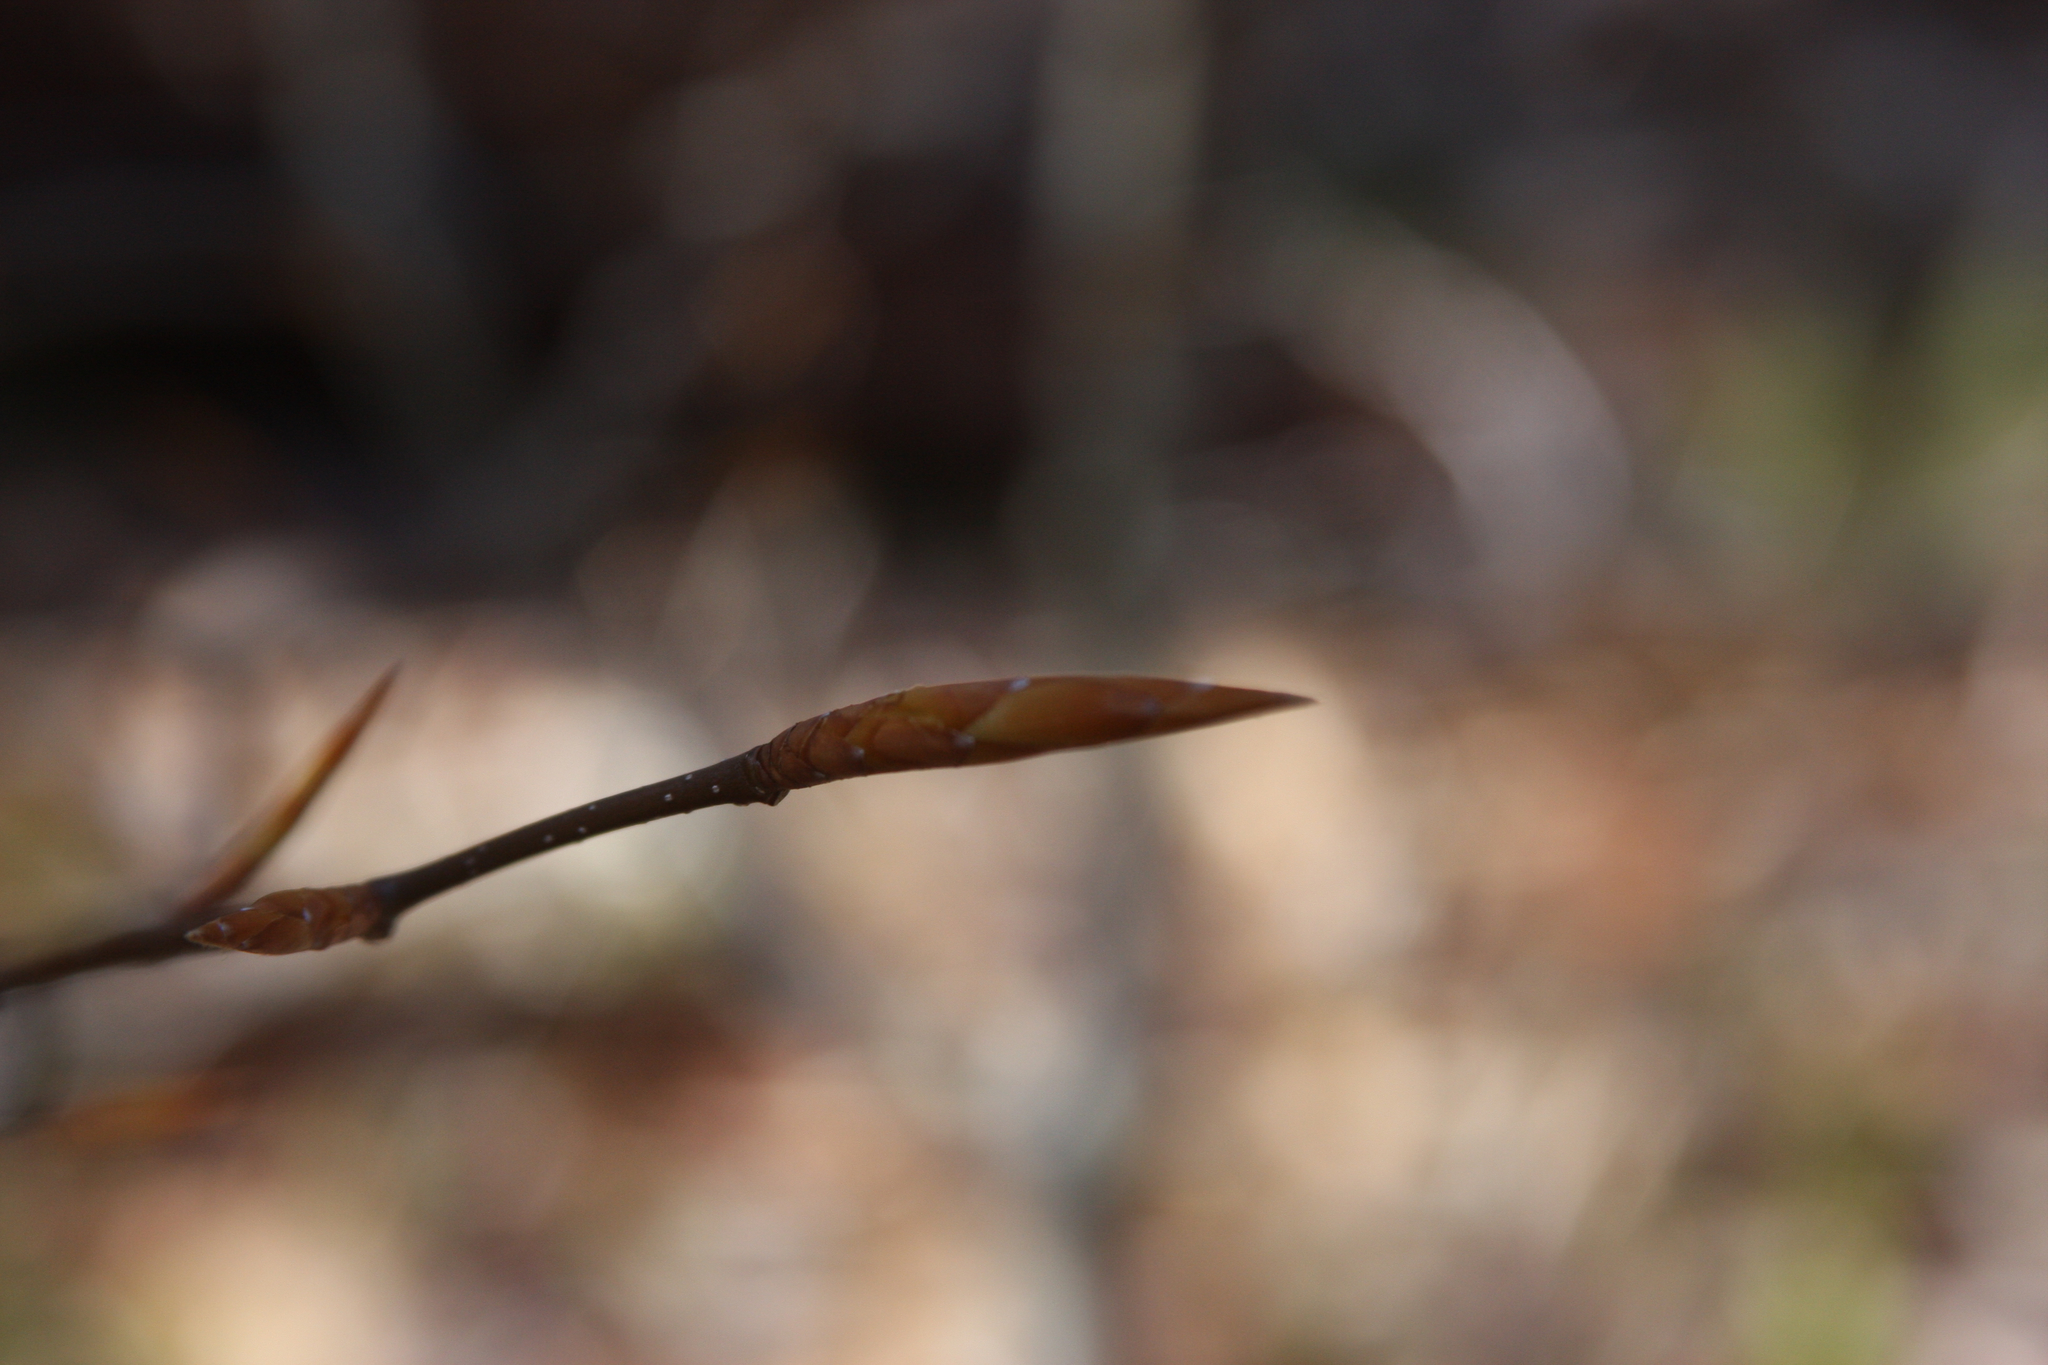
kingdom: Plantae
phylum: Tracheophyta
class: Magnoliopsida
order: Fagales
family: Fagaceae
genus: Fagus
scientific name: Fagus grandifolia
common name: American beech
